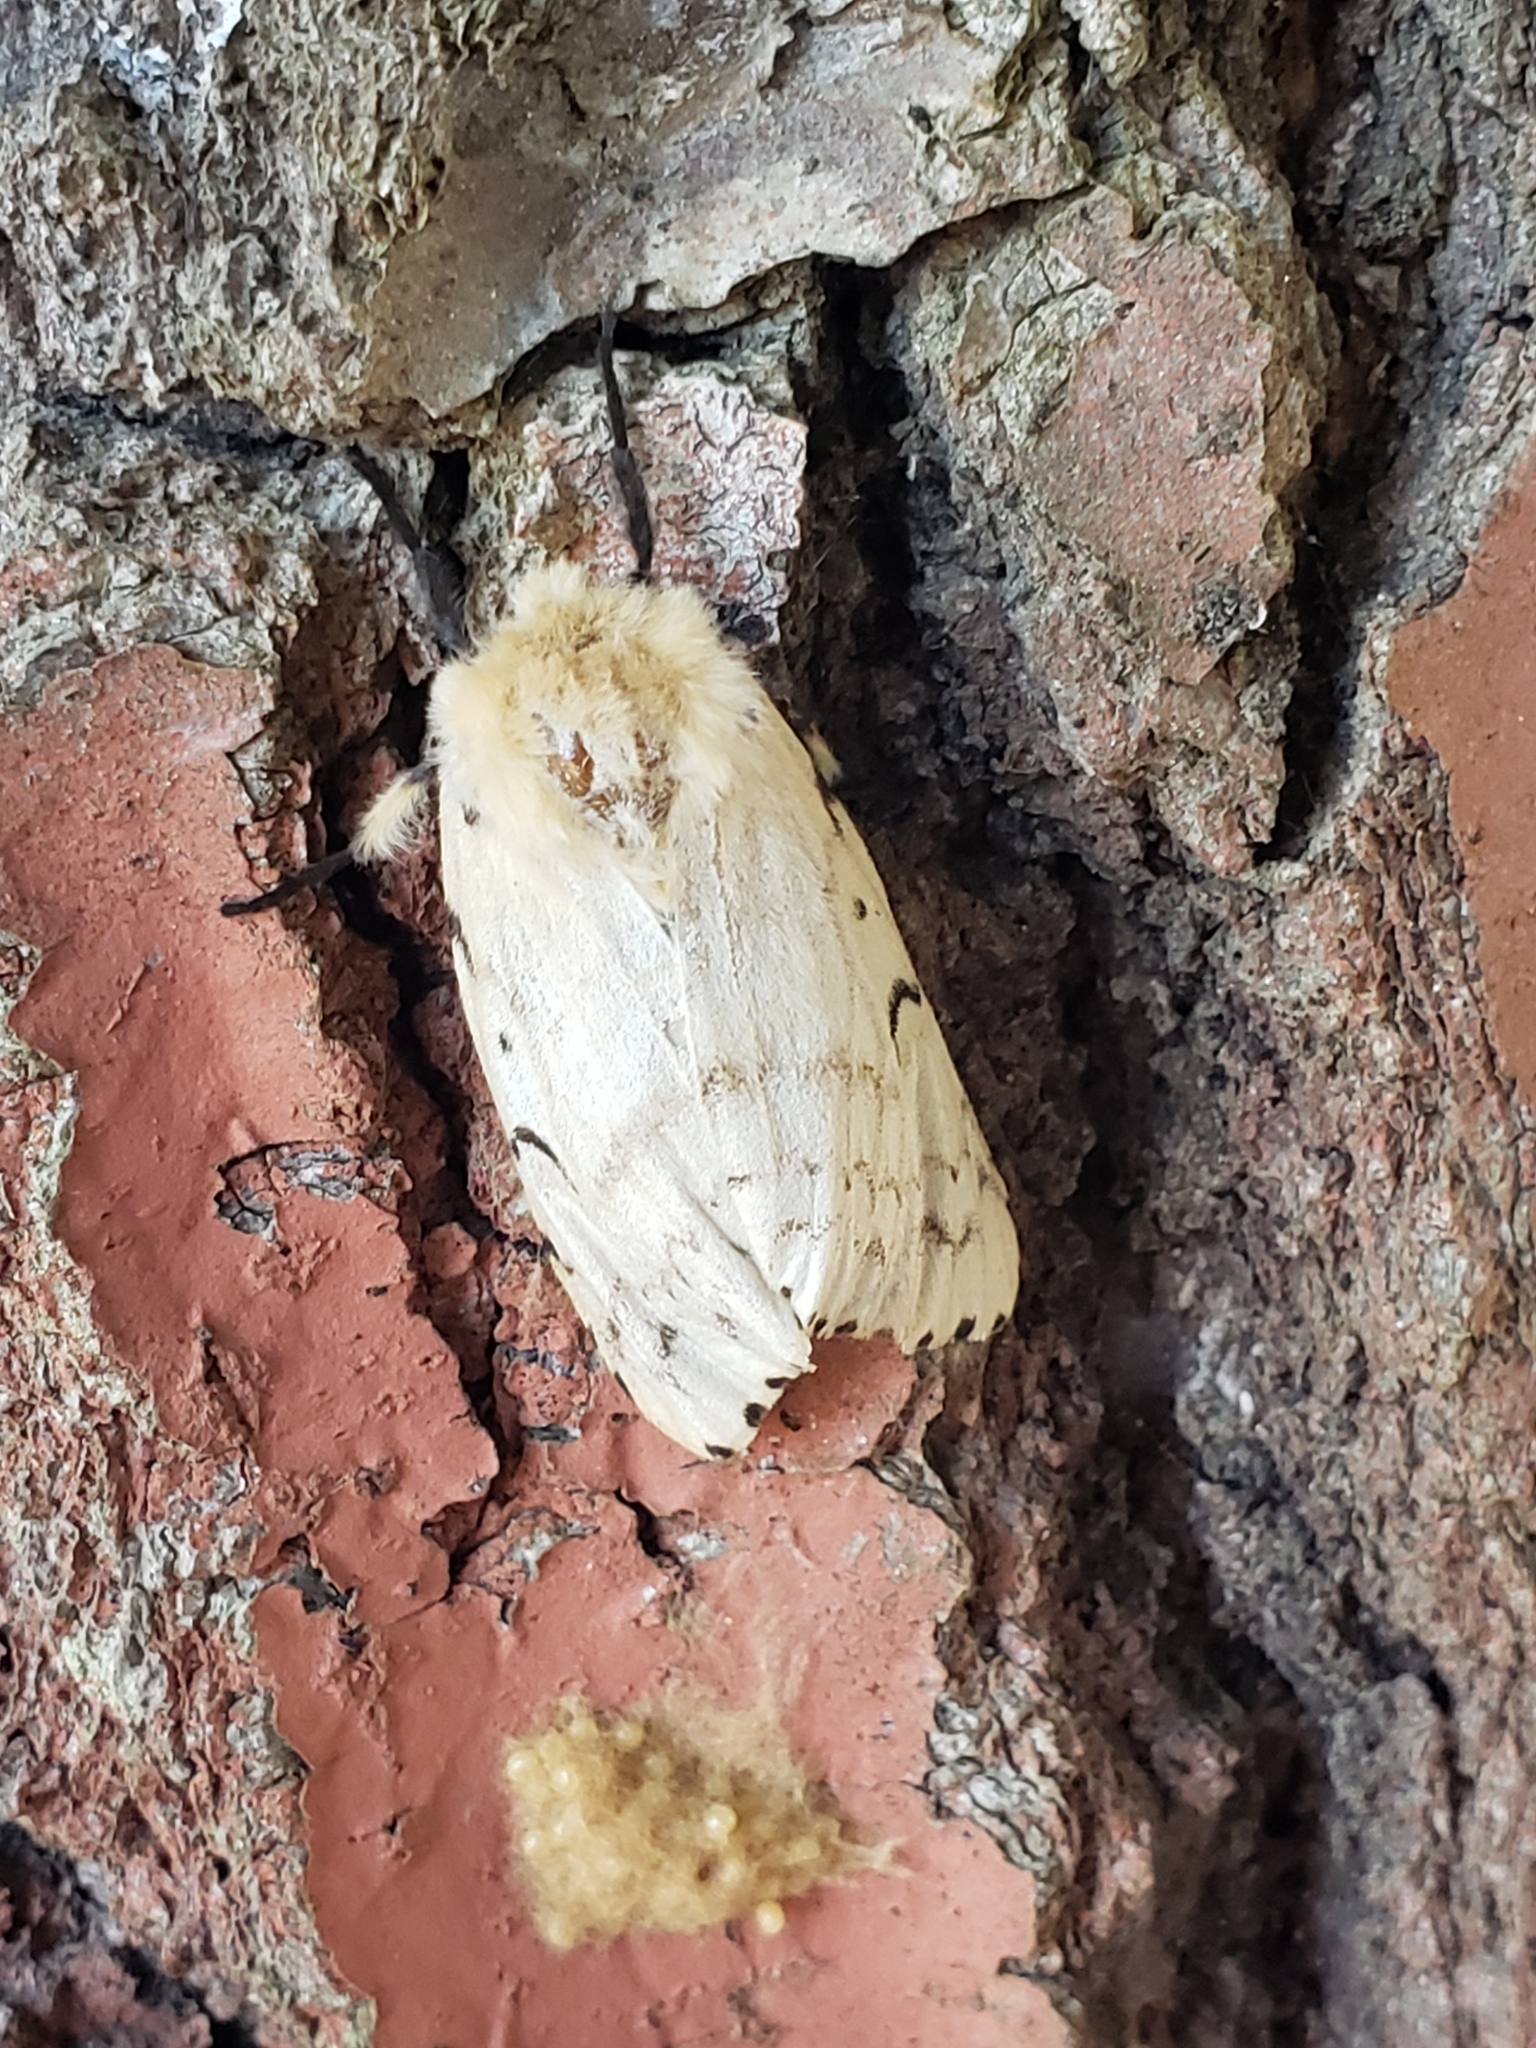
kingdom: Animalia
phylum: Arthropoda
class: Insecta
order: Lepidoptera
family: Erebidae
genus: Lymantria
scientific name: Lymantria dispar
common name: Gypsy moth
